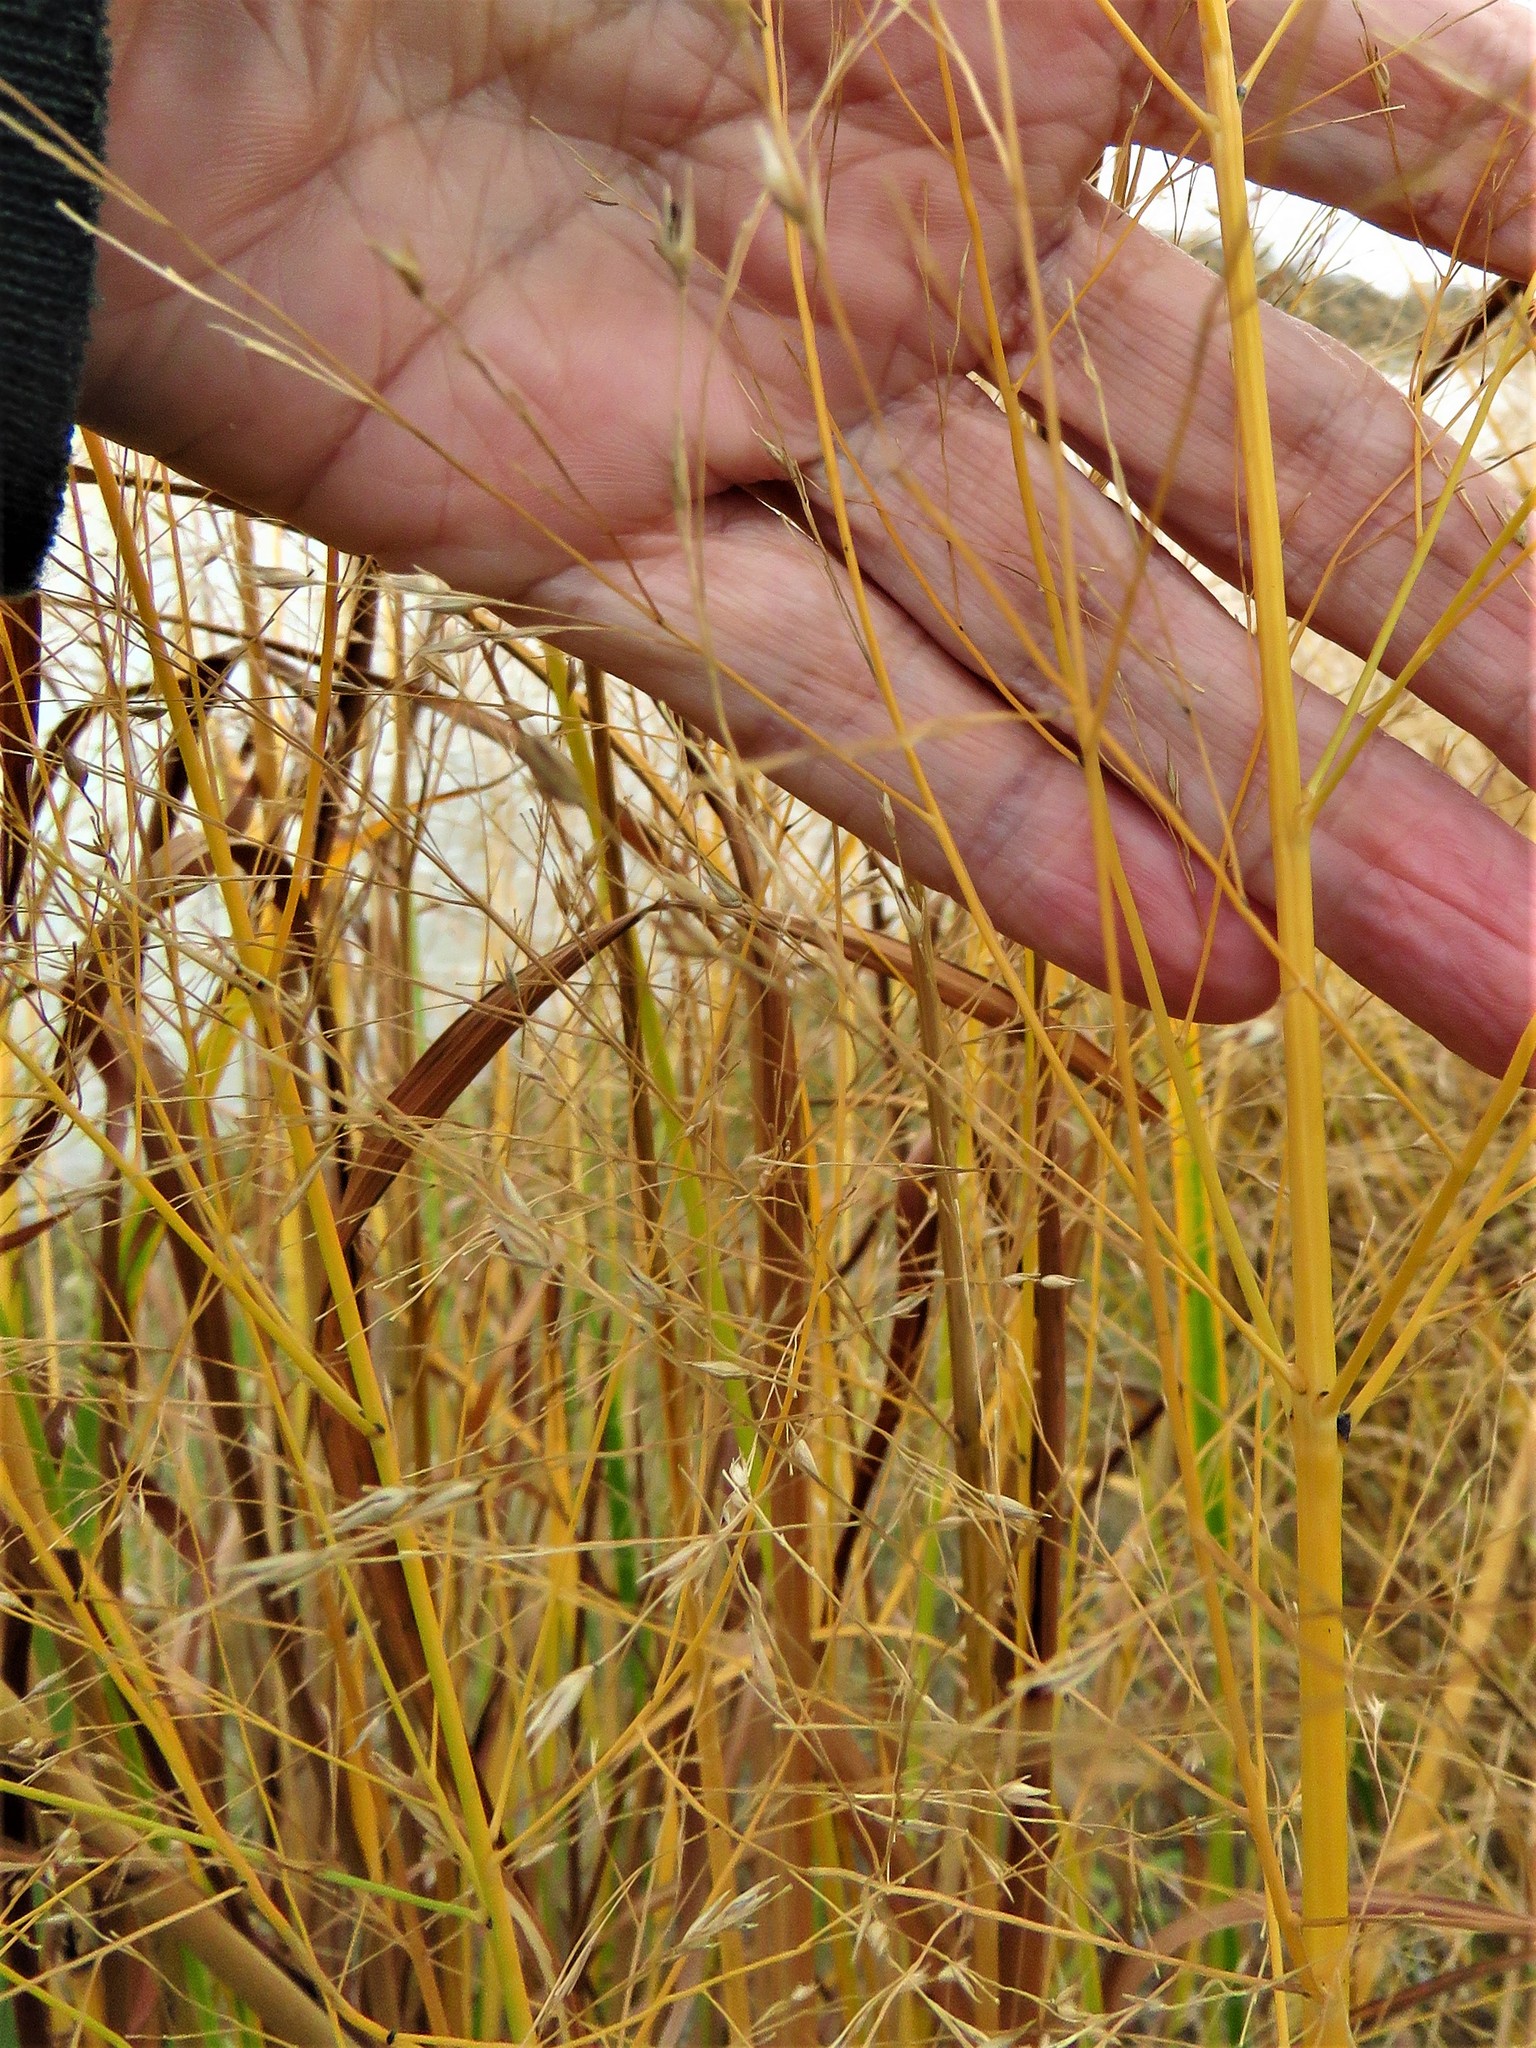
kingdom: Plantae
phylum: Tracheophyta
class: Liliopsida
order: Poales
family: Poaceae
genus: Panicum
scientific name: Panicum virgatum
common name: Switchgrass
